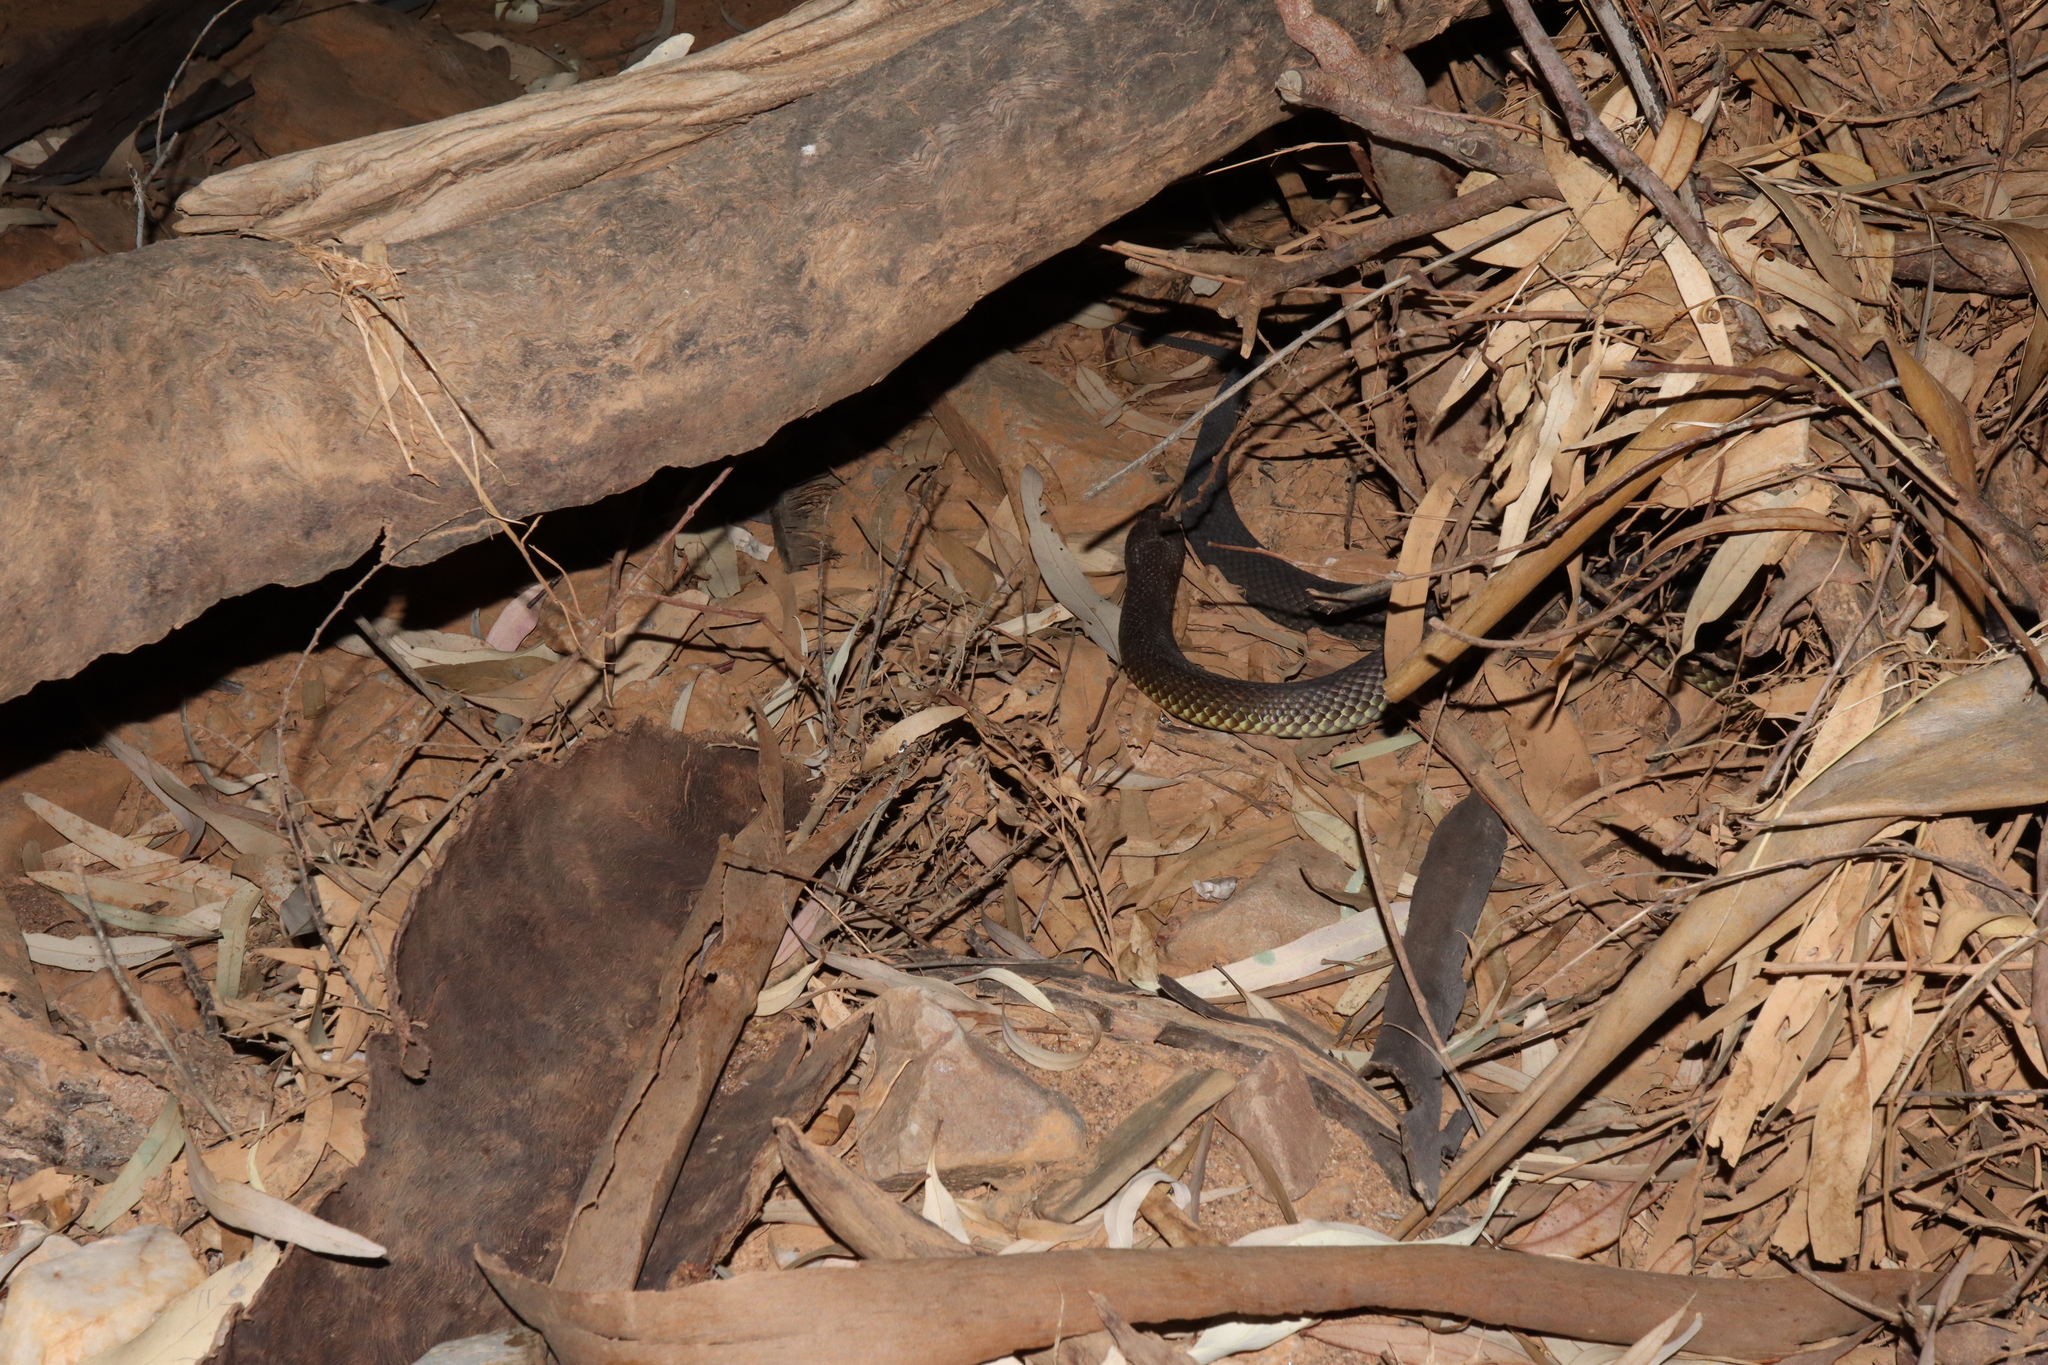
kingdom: Animalia
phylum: Chordata
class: Squamata
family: Elapidae
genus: Pseudechis
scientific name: Pseudechis australis
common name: King brown snake
